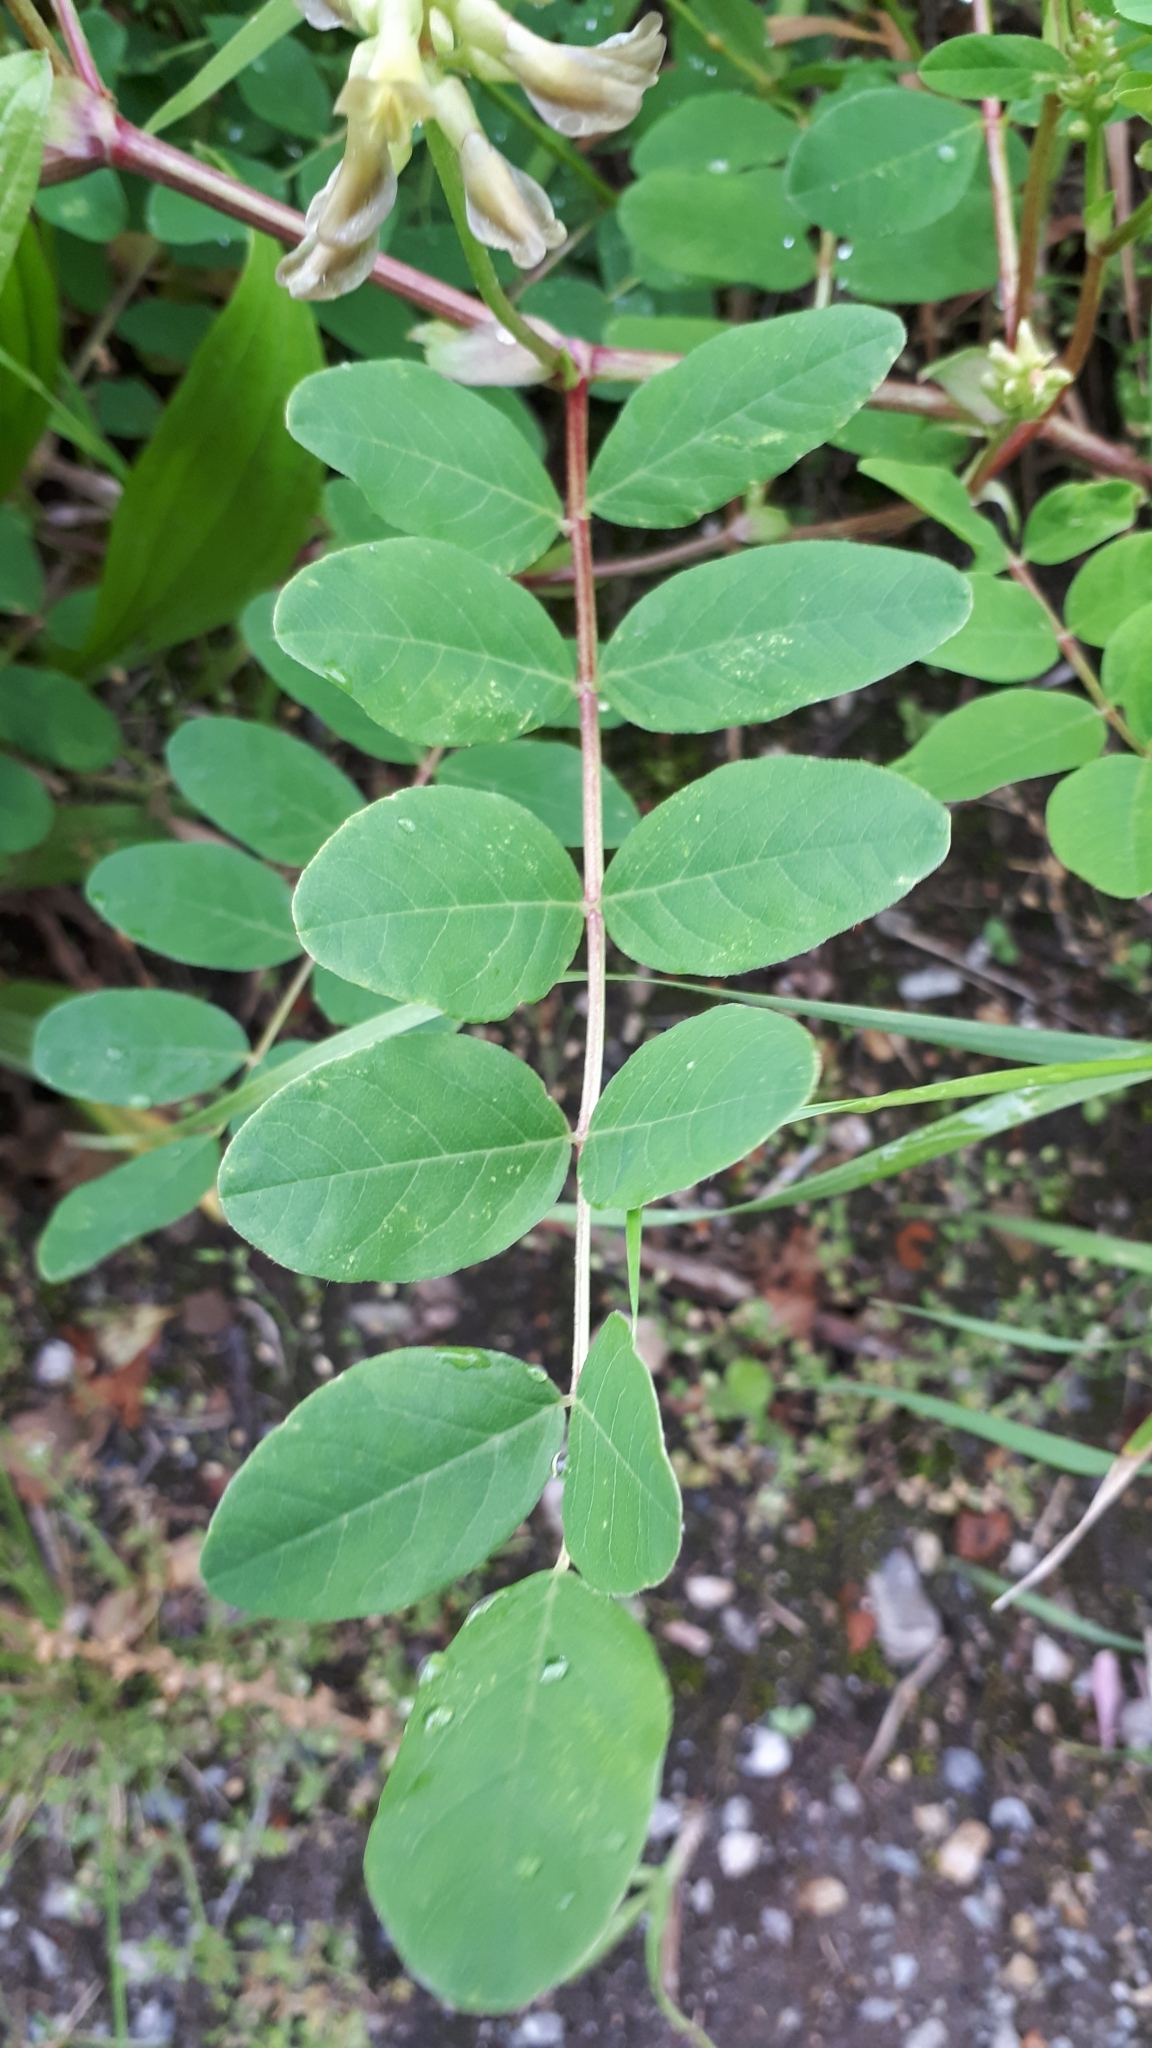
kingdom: Plantae
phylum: Tracheophyta
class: Magnoliopsida
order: Fabales
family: Fabaceae
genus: Astragalus
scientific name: Astragalus glycyphyllos
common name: Wild liquorice
